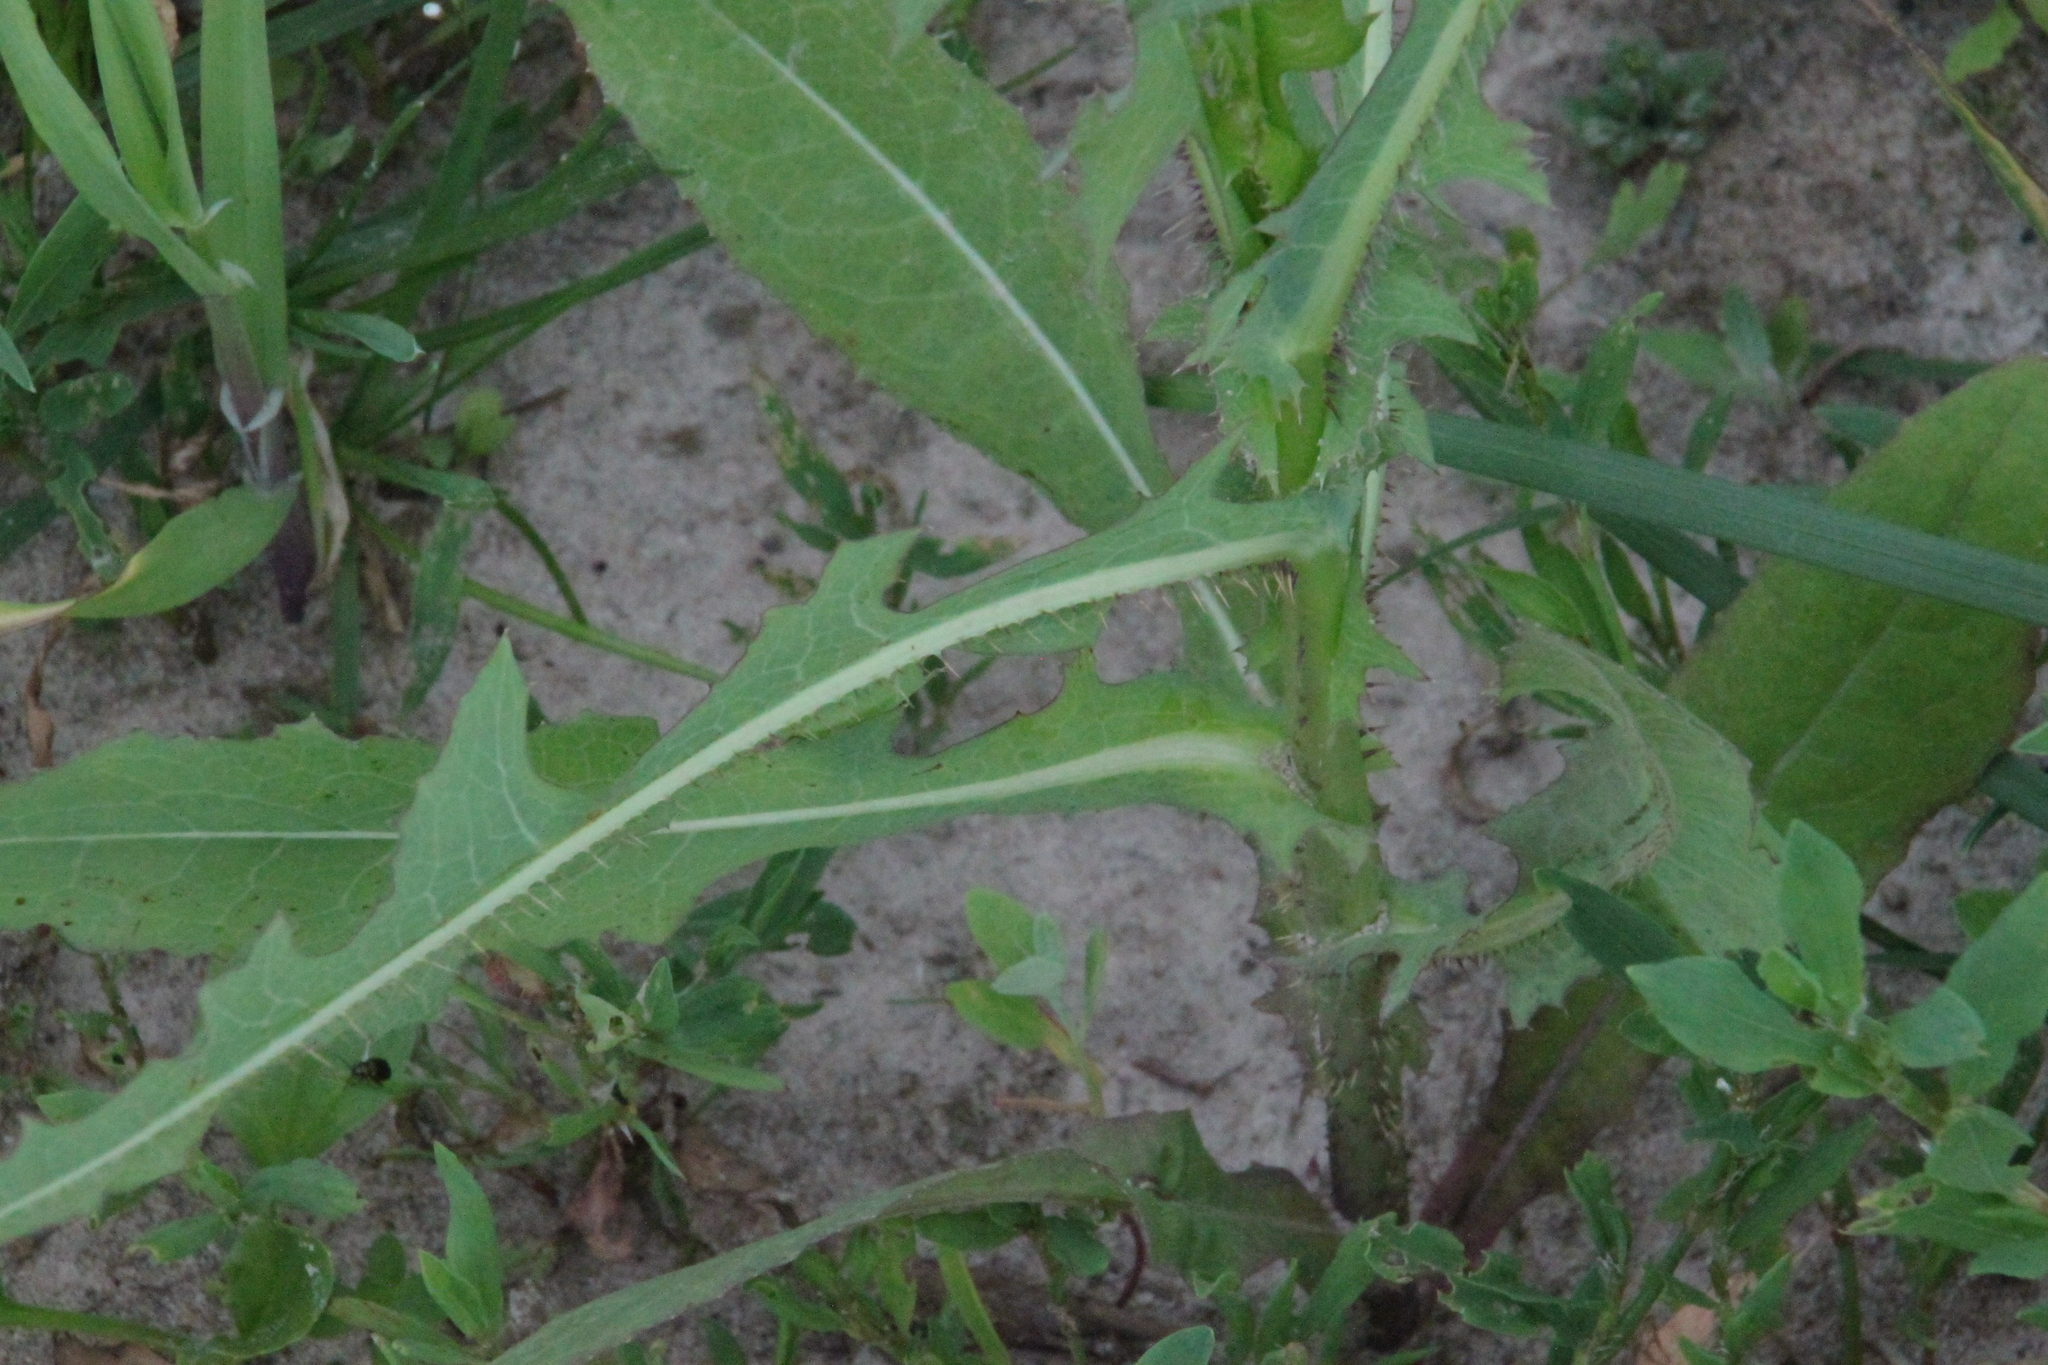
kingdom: Plantae
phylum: Tracheophyta
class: Magnoliopsida
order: Asterales
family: Asteraceae
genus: Lactuca
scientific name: Lactuca serriola
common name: Prickly lettuce
